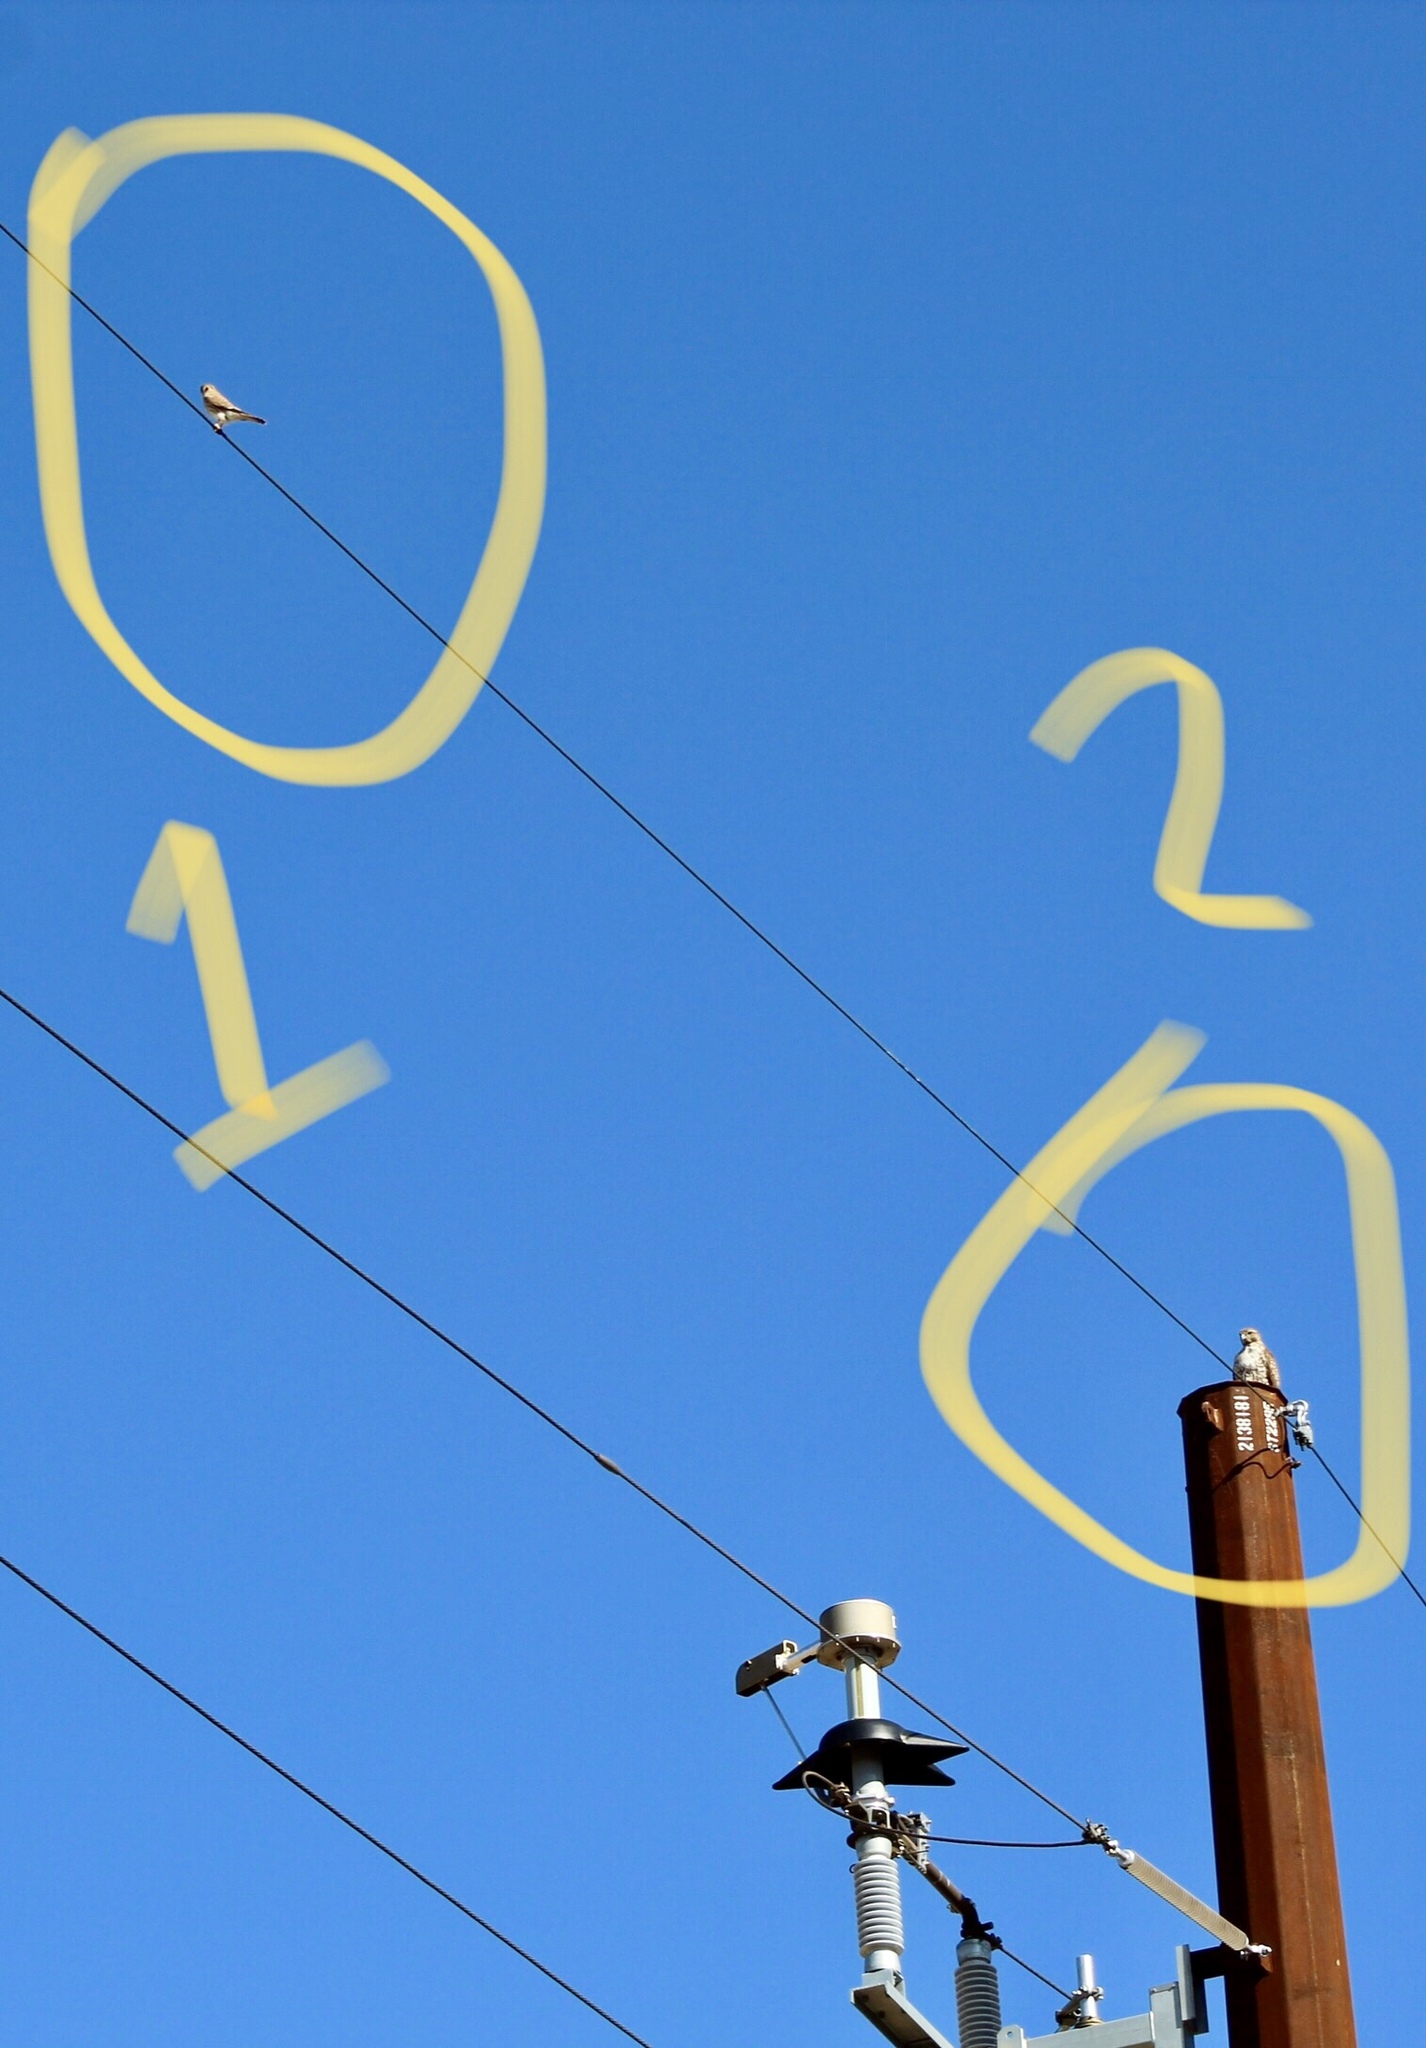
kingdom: Animalia
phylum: Chordata
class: Aves
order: Falconiformes
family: Falconidae
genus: Falco
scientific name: Falco sparverius
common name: American kestrel
